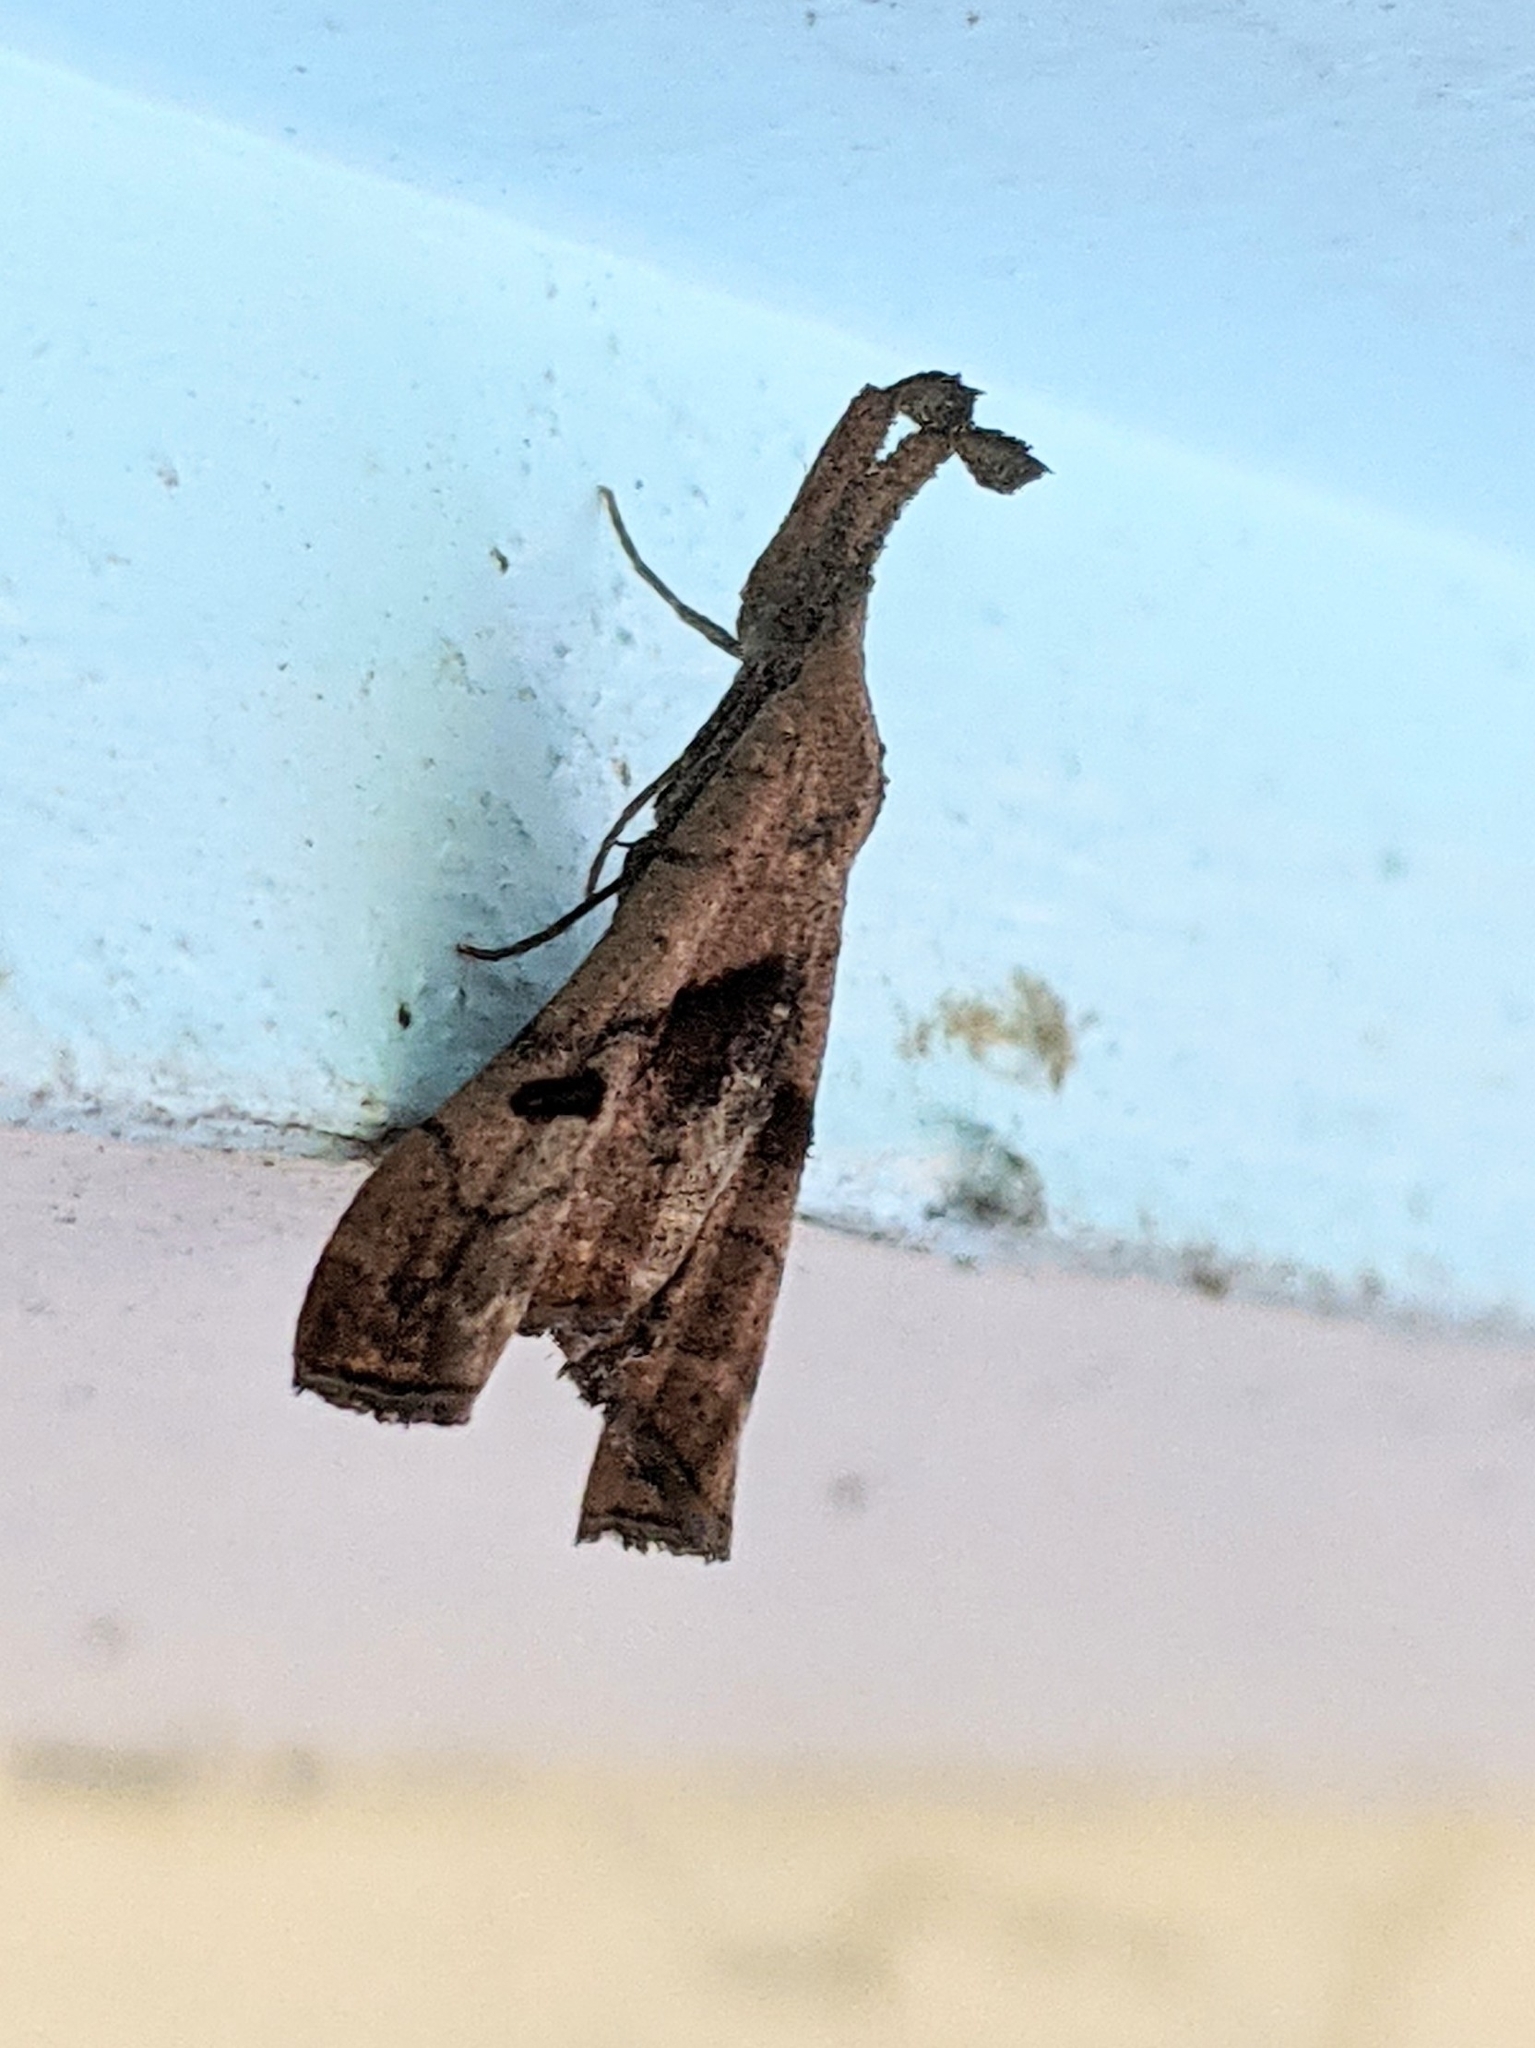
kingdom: Animalia
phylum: Arthropoda
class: Insecta
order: Lepidoptera
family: Erebidae
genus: Palthis
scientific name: Palthis angulalis
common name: Dark-spotted palthis moth
